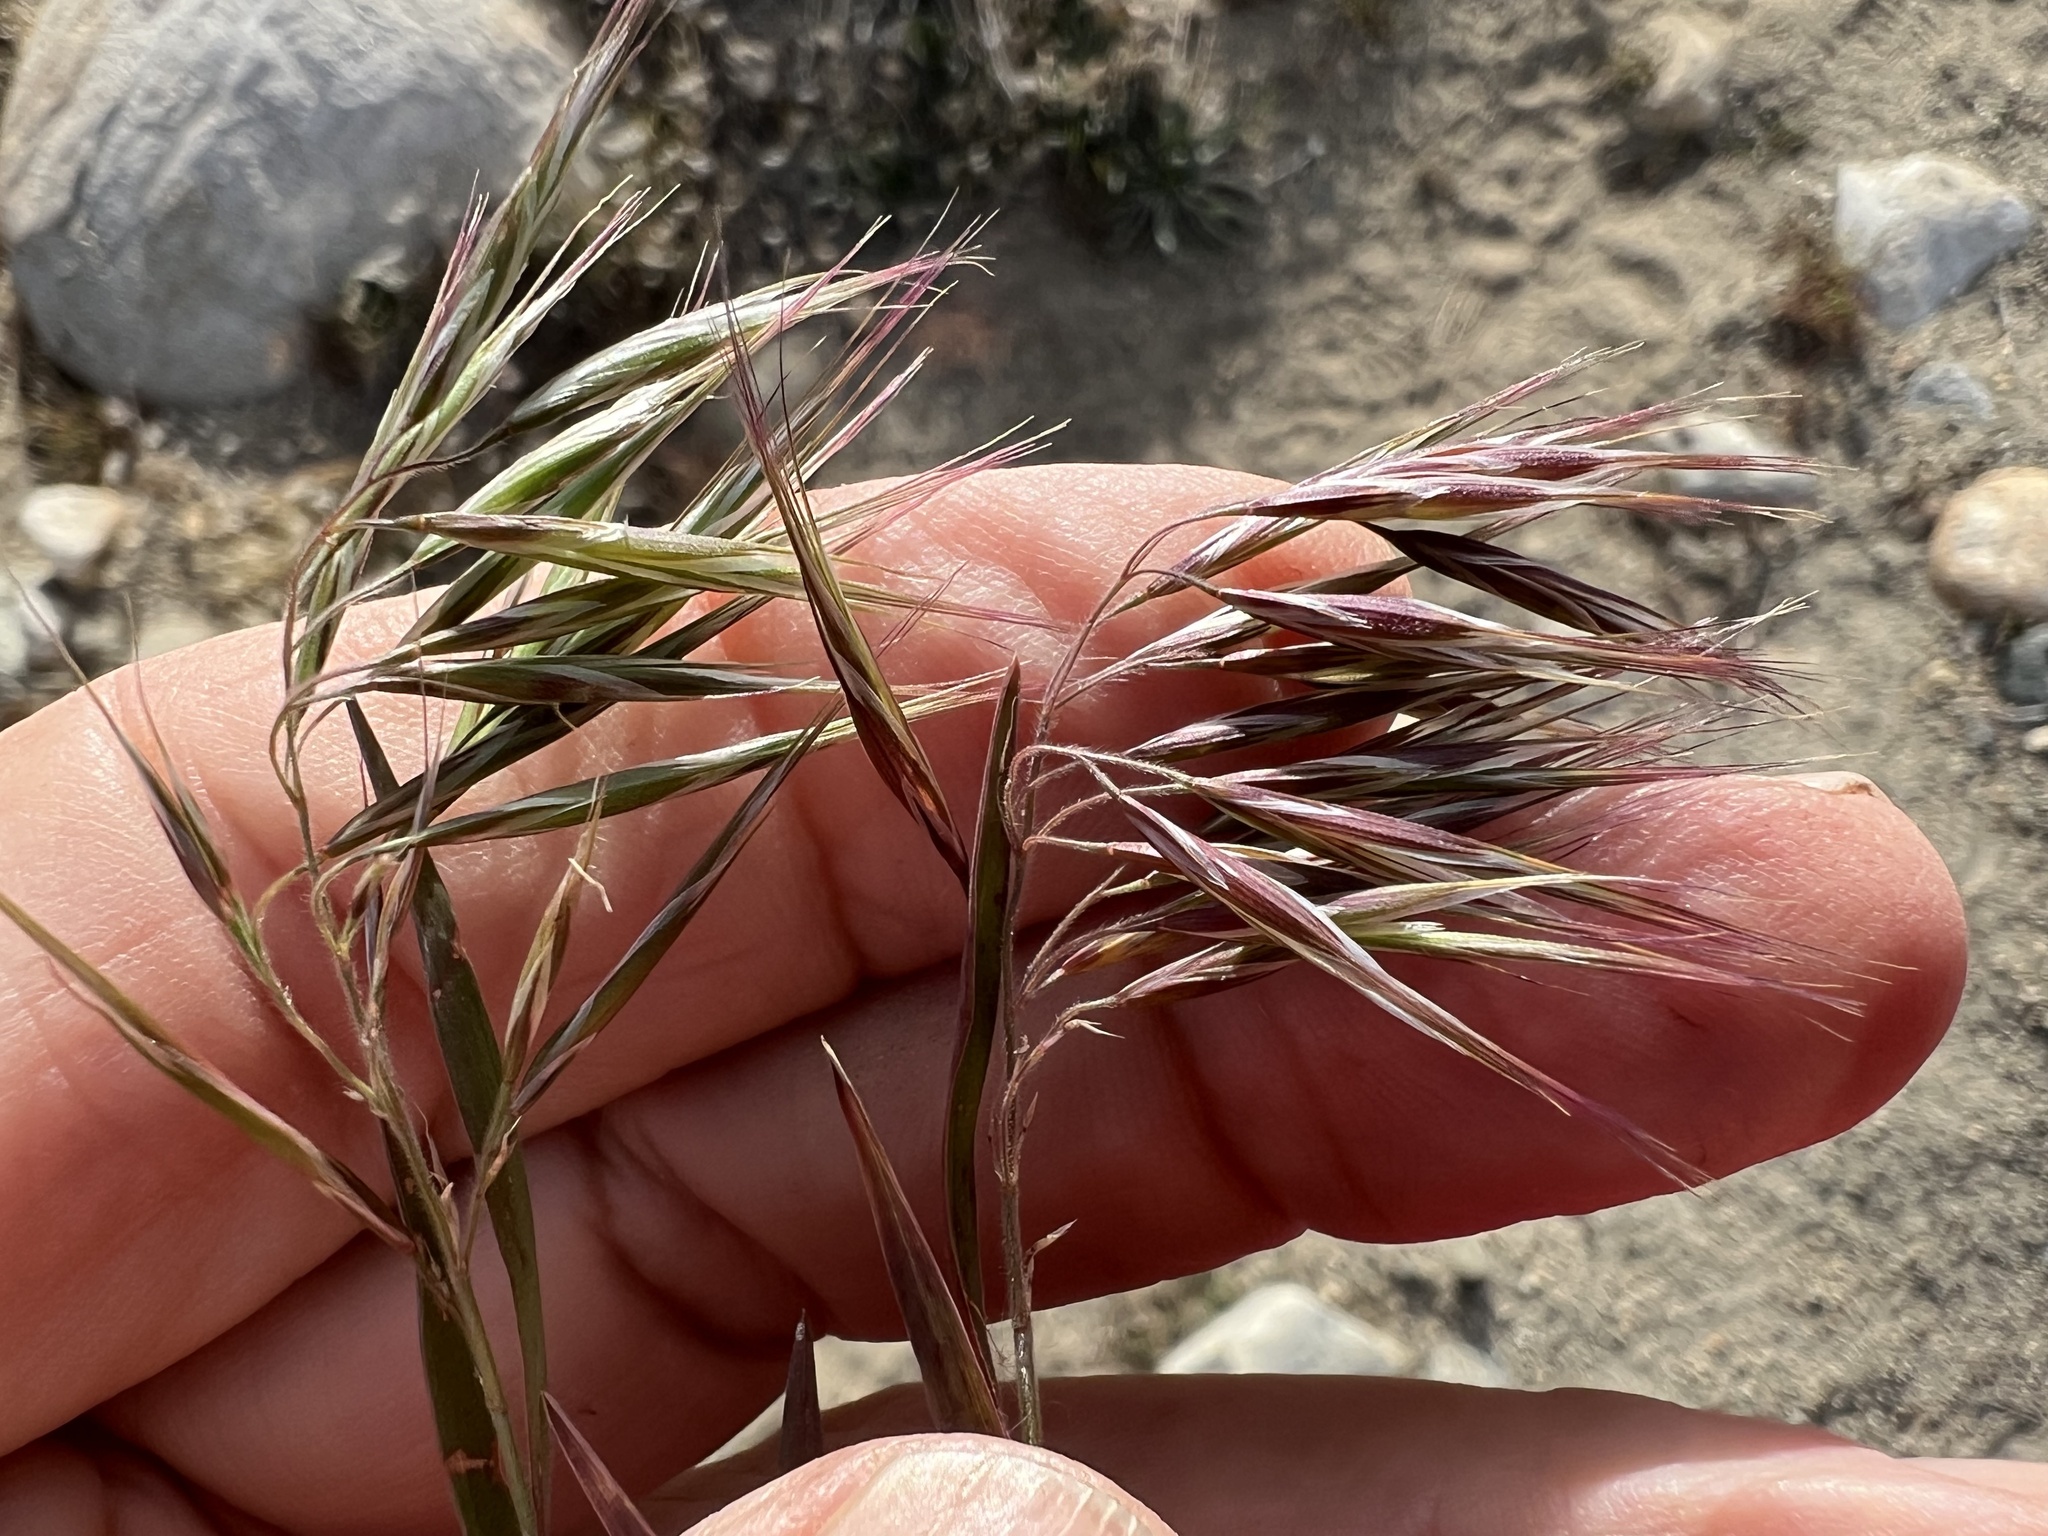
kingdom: Plantae
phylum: Tracheophyta
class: Liliopsida
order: Poales
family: Poaceae
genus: Bromus
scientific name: Bromus tectorum
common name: Cheatgrass
